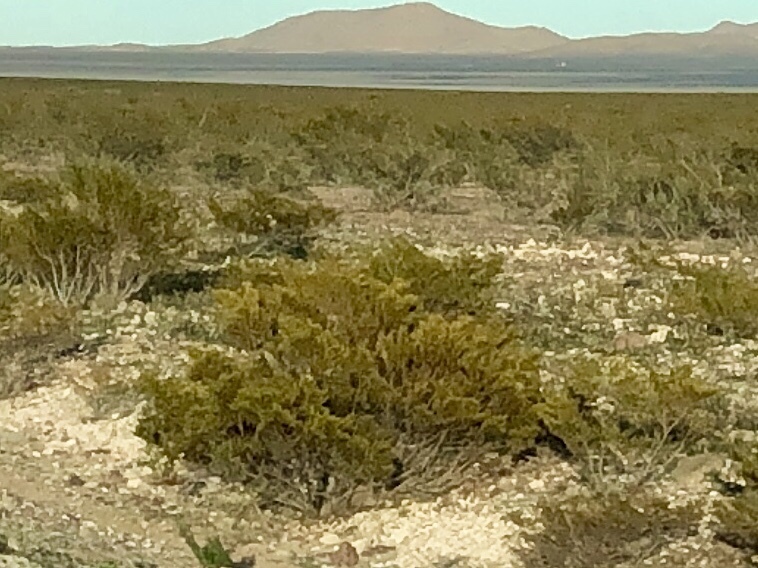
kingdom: Plantae
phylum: Tracheophyta
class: Magnoliopsida
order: Zygophyllales
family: Zygophyllaceae
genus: Larrea
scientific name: Larrea tridentata
